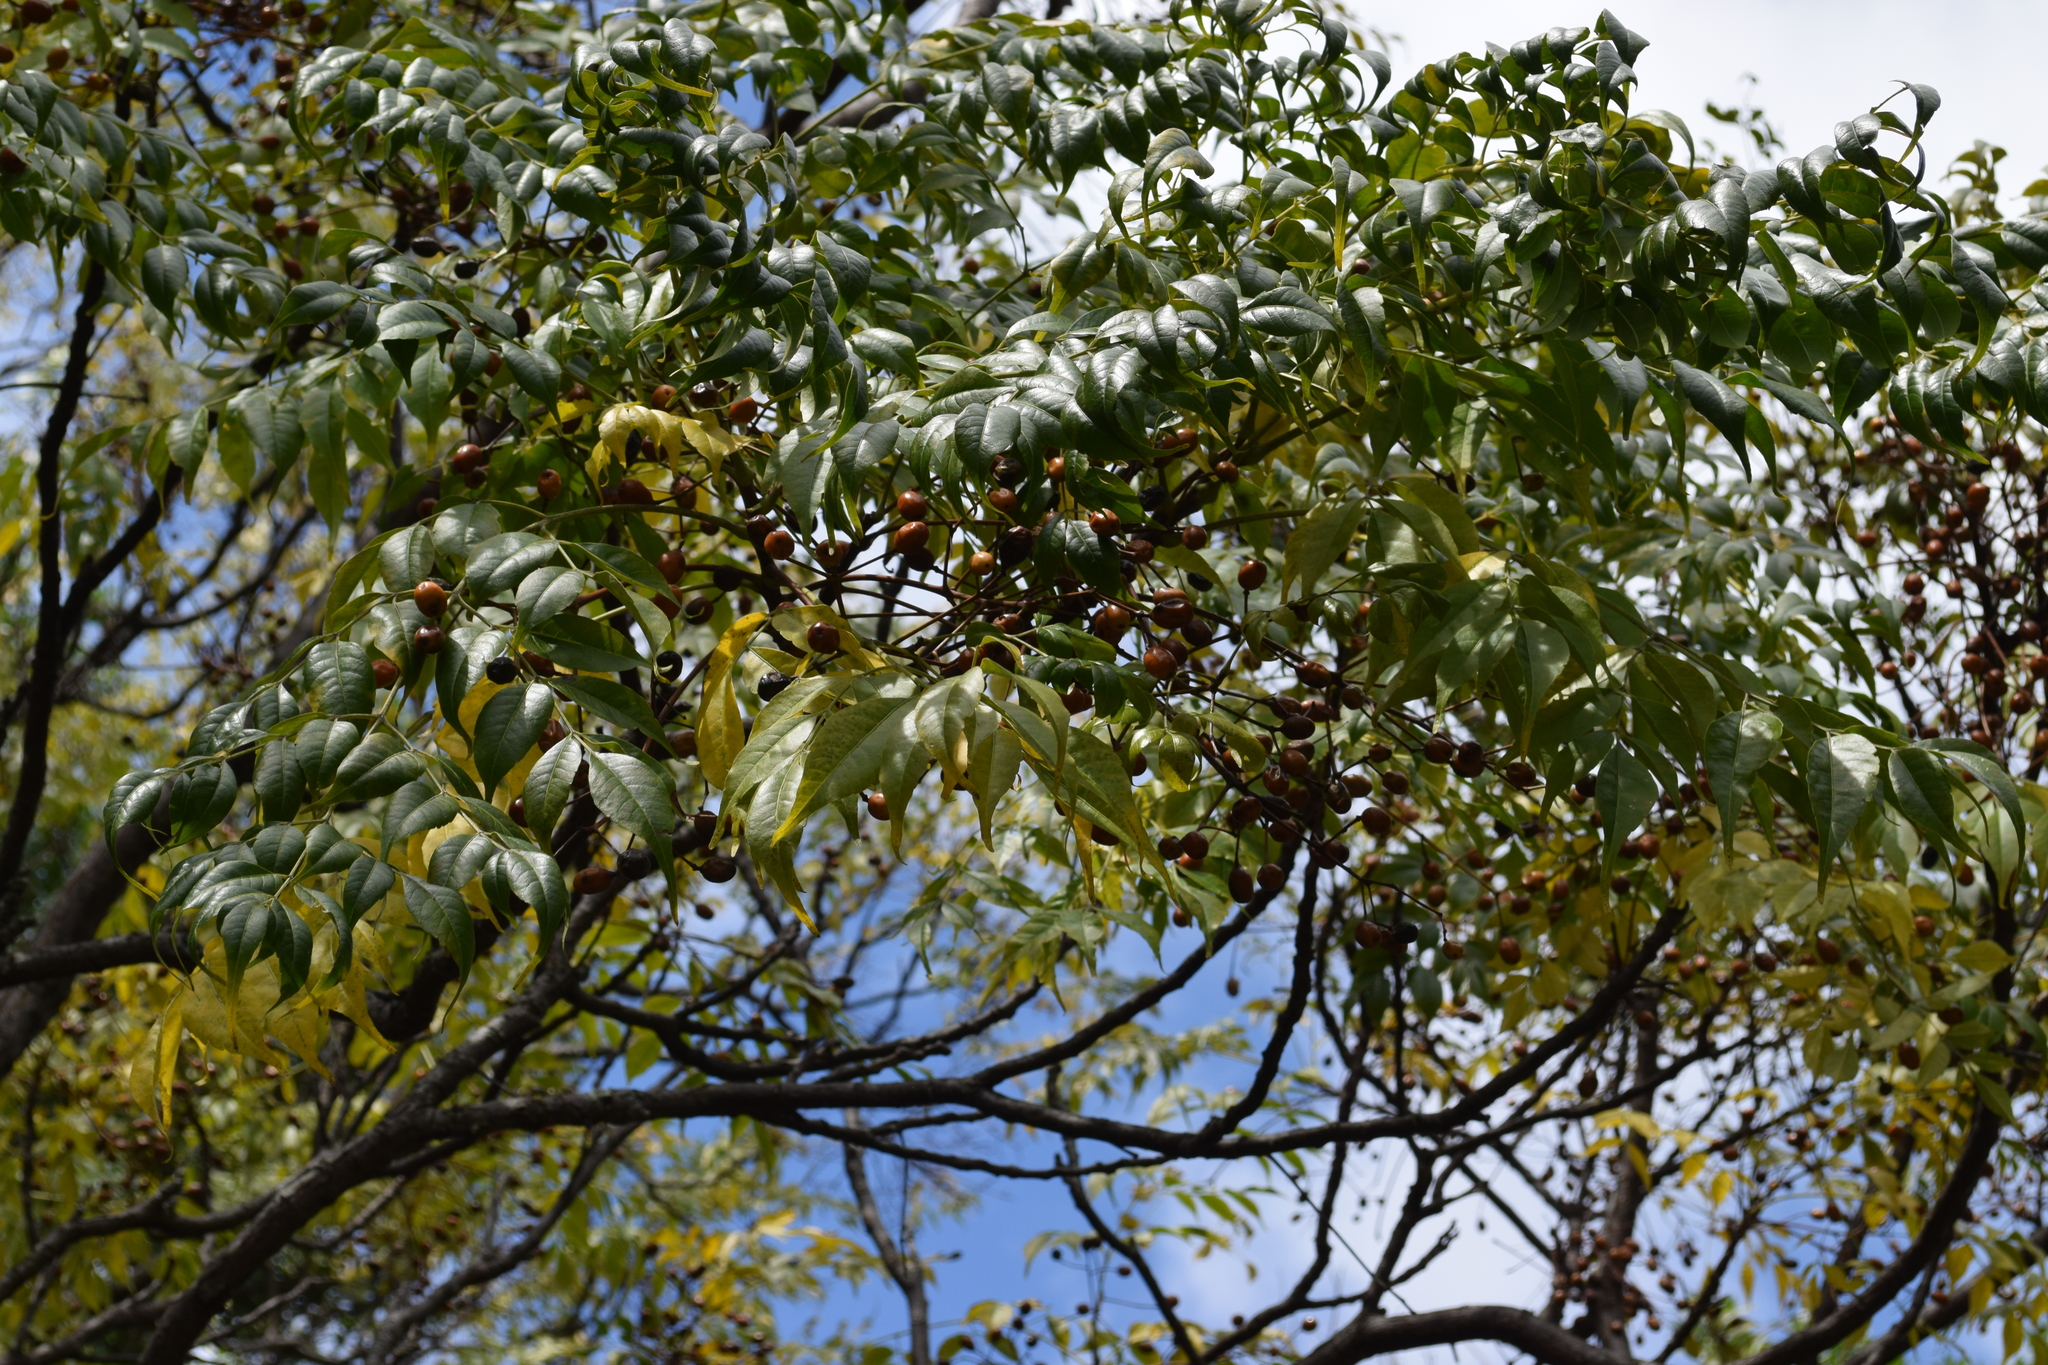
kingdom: Plantae
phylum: Tracheophyta
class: Magnoliopsida
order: Sapindales
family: Meliaceae
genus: Melia
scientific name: Melia azedarach
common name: Chinaberrytree
